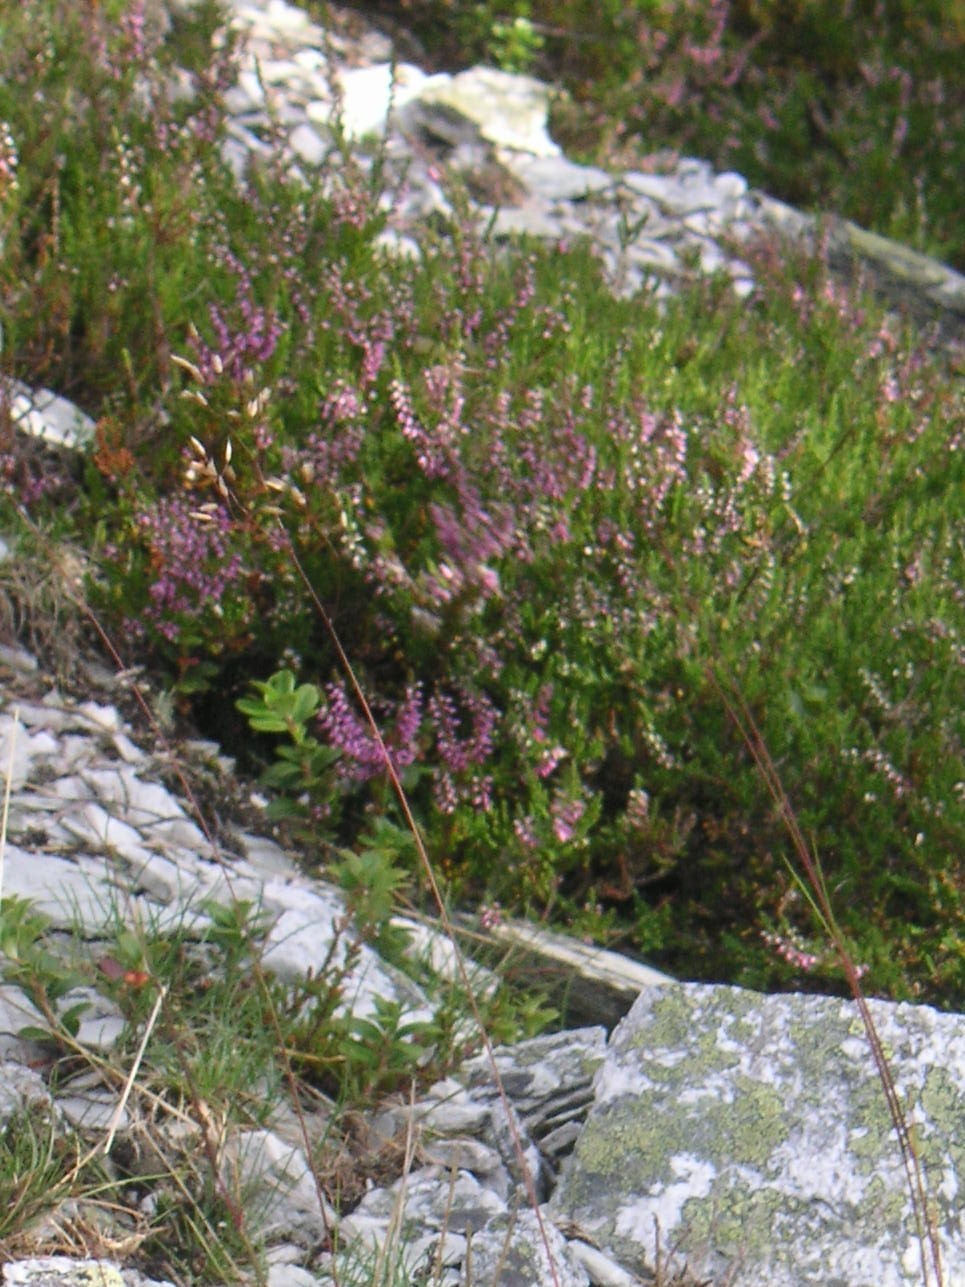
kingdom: Plantae
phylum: Tracheophyta
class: Magnoliopsida
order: Ericales
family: Ericaceae
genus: Calluna
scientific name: Calluna vulgaris
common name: Heather
